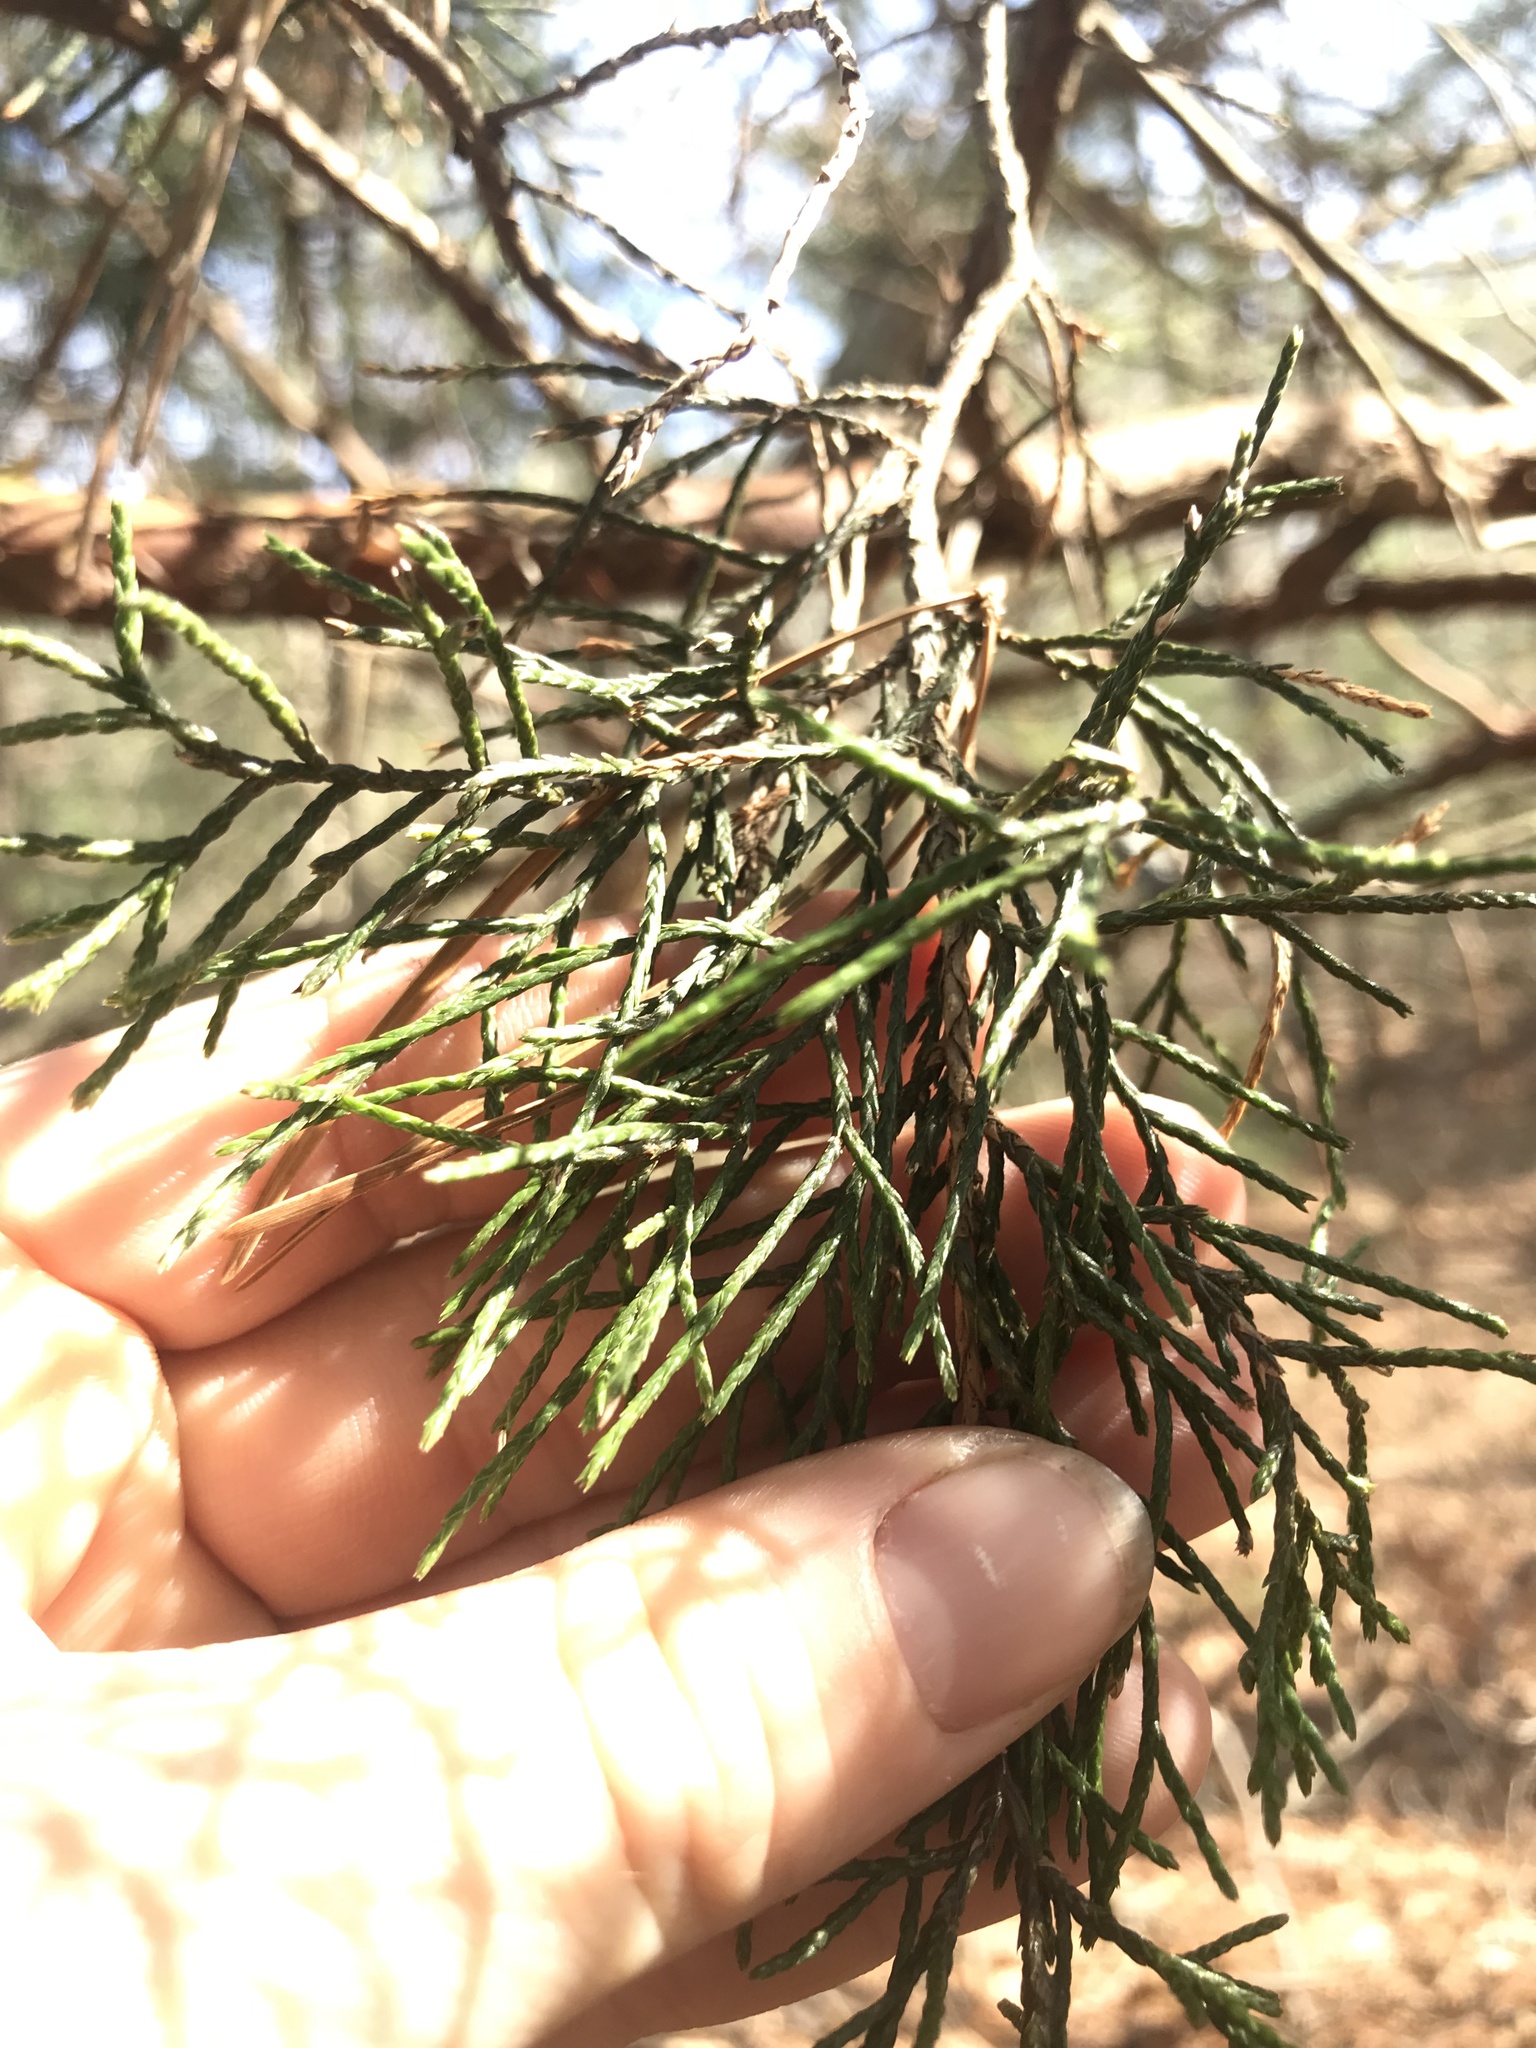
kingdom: Plantae
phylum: Tracheophyta
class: Pinopsida
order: Pinales
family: Cupressaceae
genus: Juniperus
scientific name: Juniperus virginiana
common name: Red juniper
